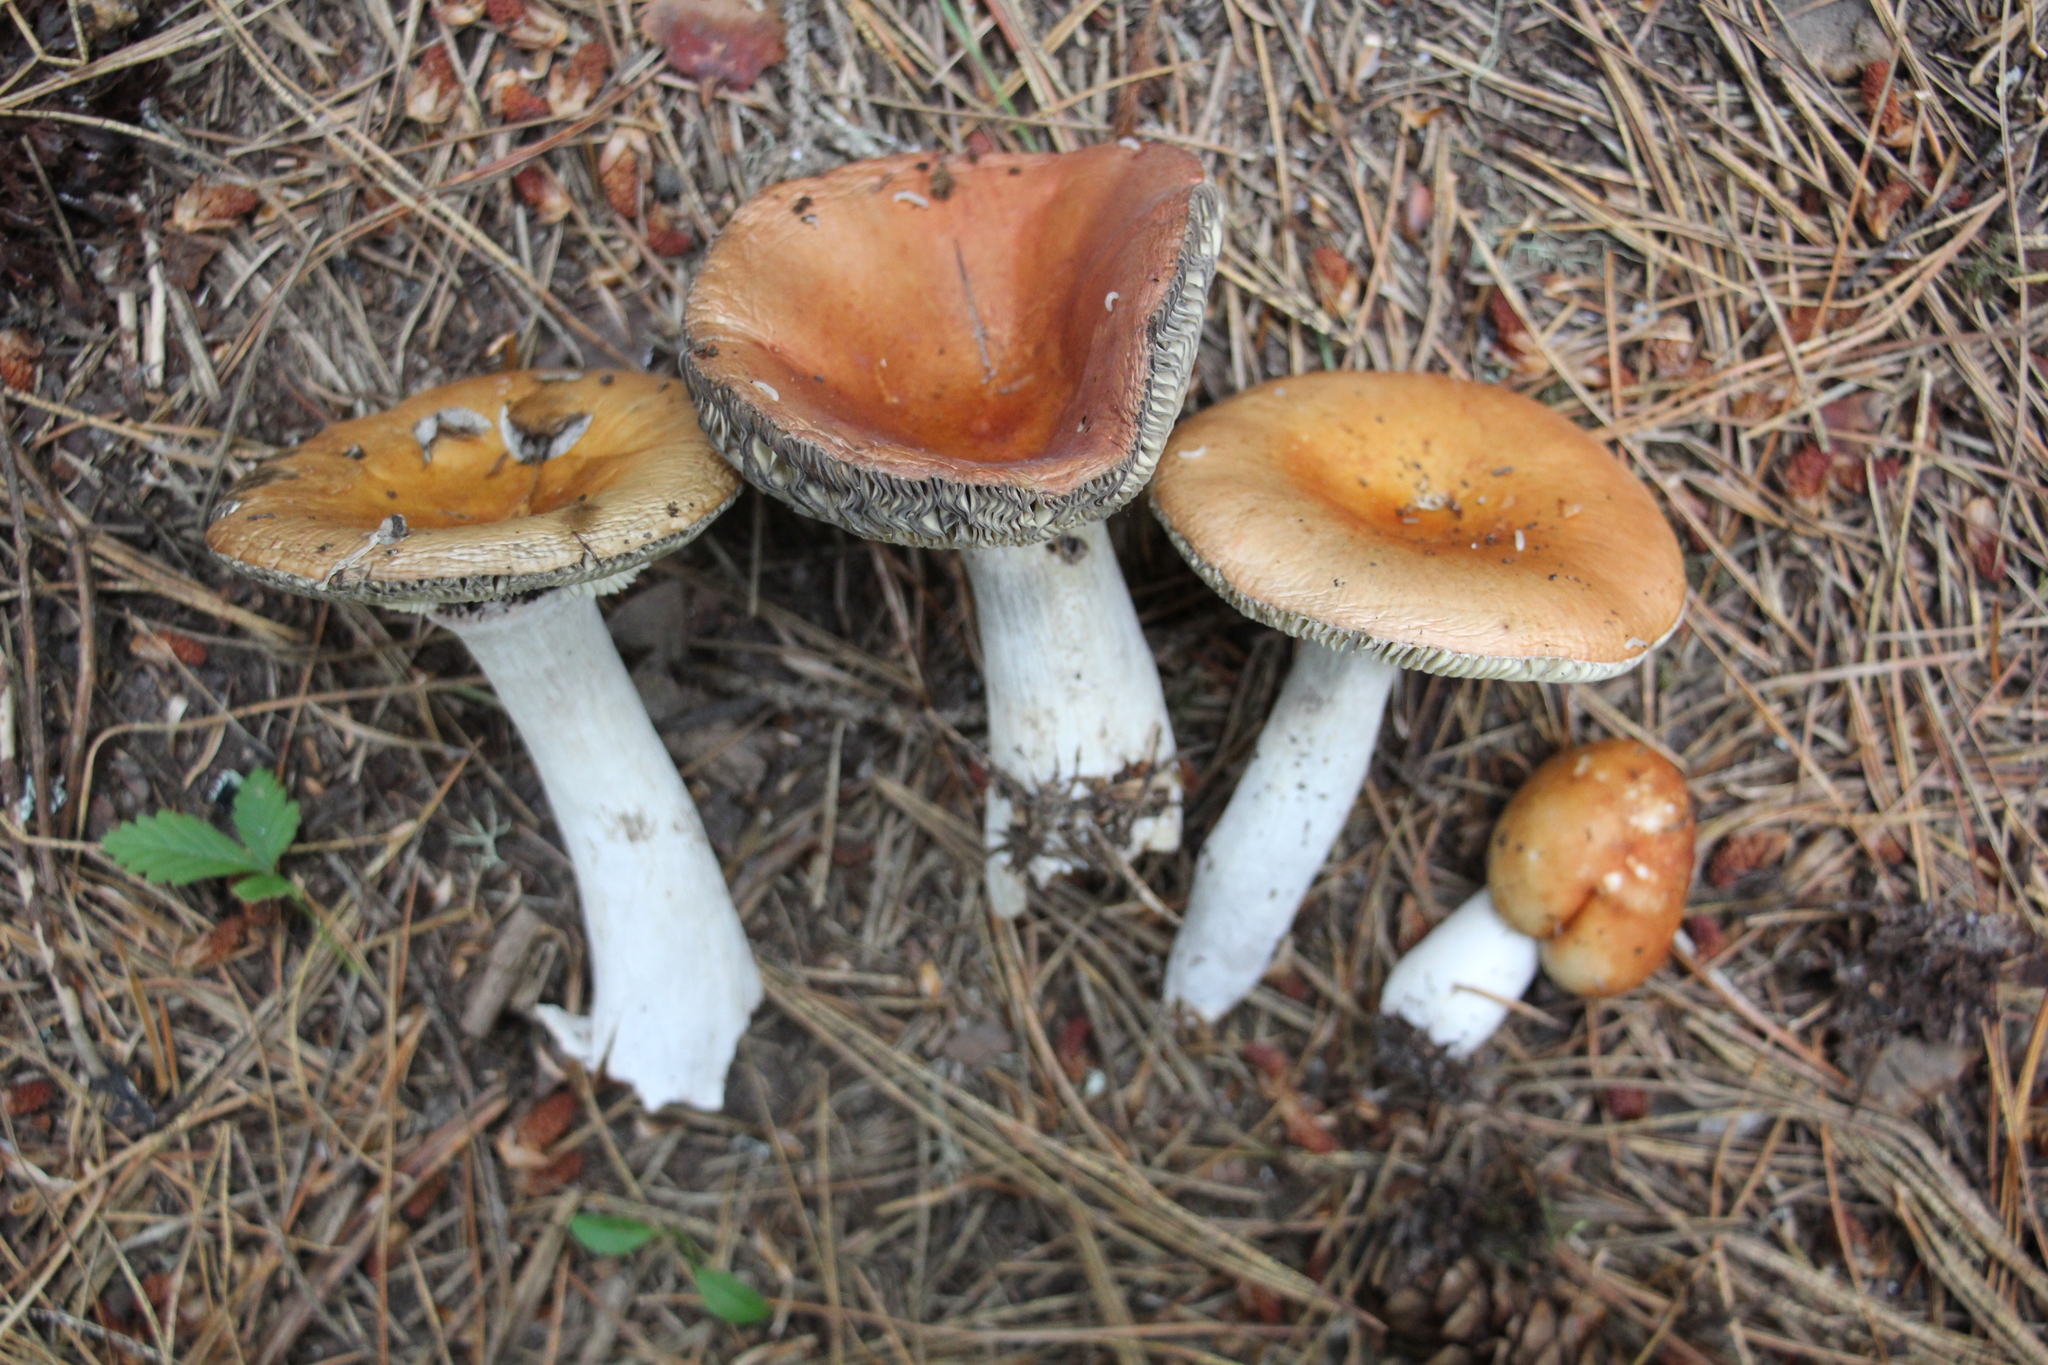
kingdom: Fungi
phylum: Basidiomycota
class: Agaricomycetes
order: Russulales
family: Russulaceae
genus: Russula
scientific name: Russula decolorans
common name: Copper brittlegill
